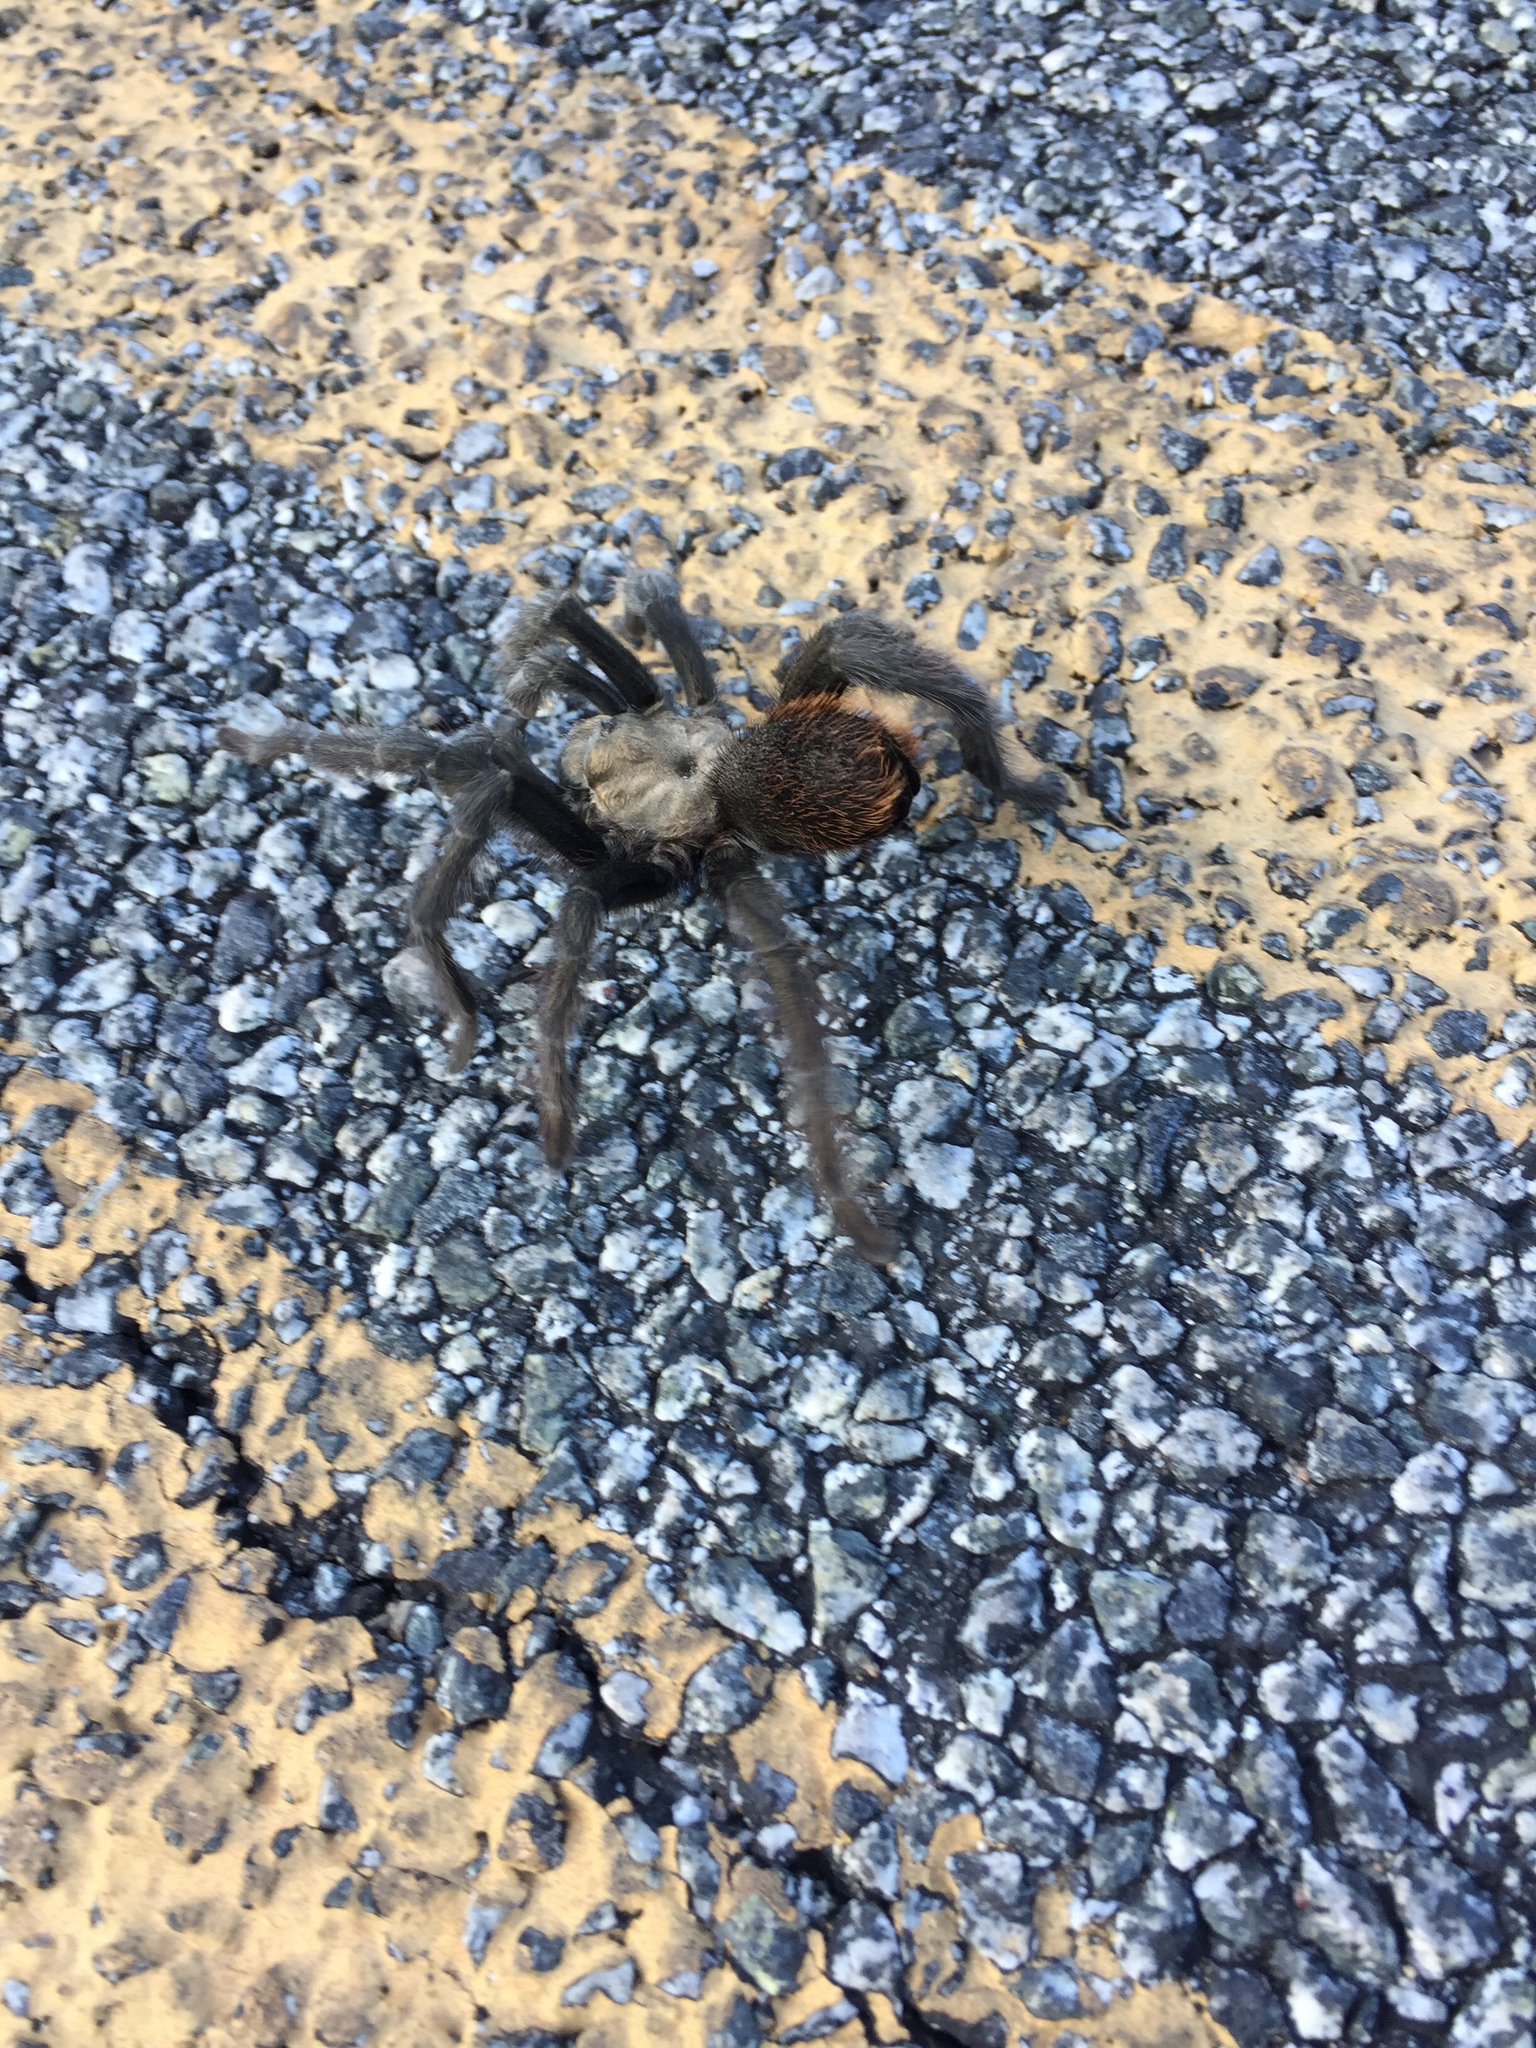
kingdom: Animalia
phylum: Arthropoda
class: Arachnida
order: Araneae
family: Theraphosidae
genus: Aphonopelma
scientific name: Aphonopelma iodius
